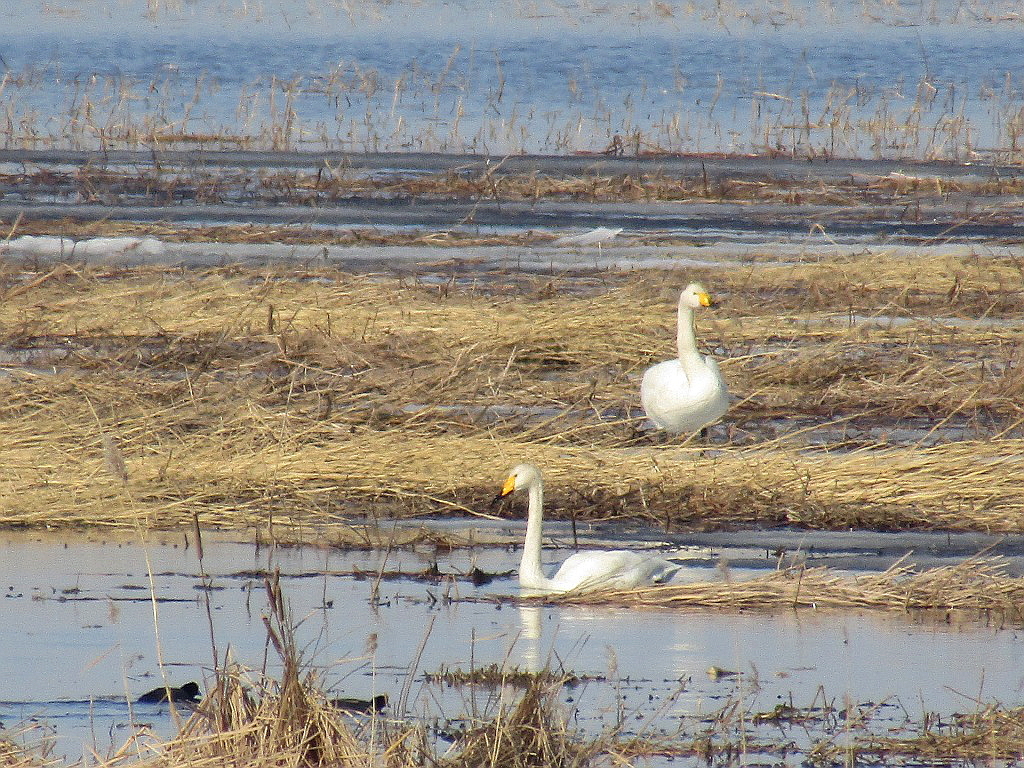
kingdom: Animalia
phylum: Chordata
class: Aves
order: Anseriformes
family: Anatidae
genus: Cygnus
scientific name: Cygnus cygnus
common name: Whooper swan
